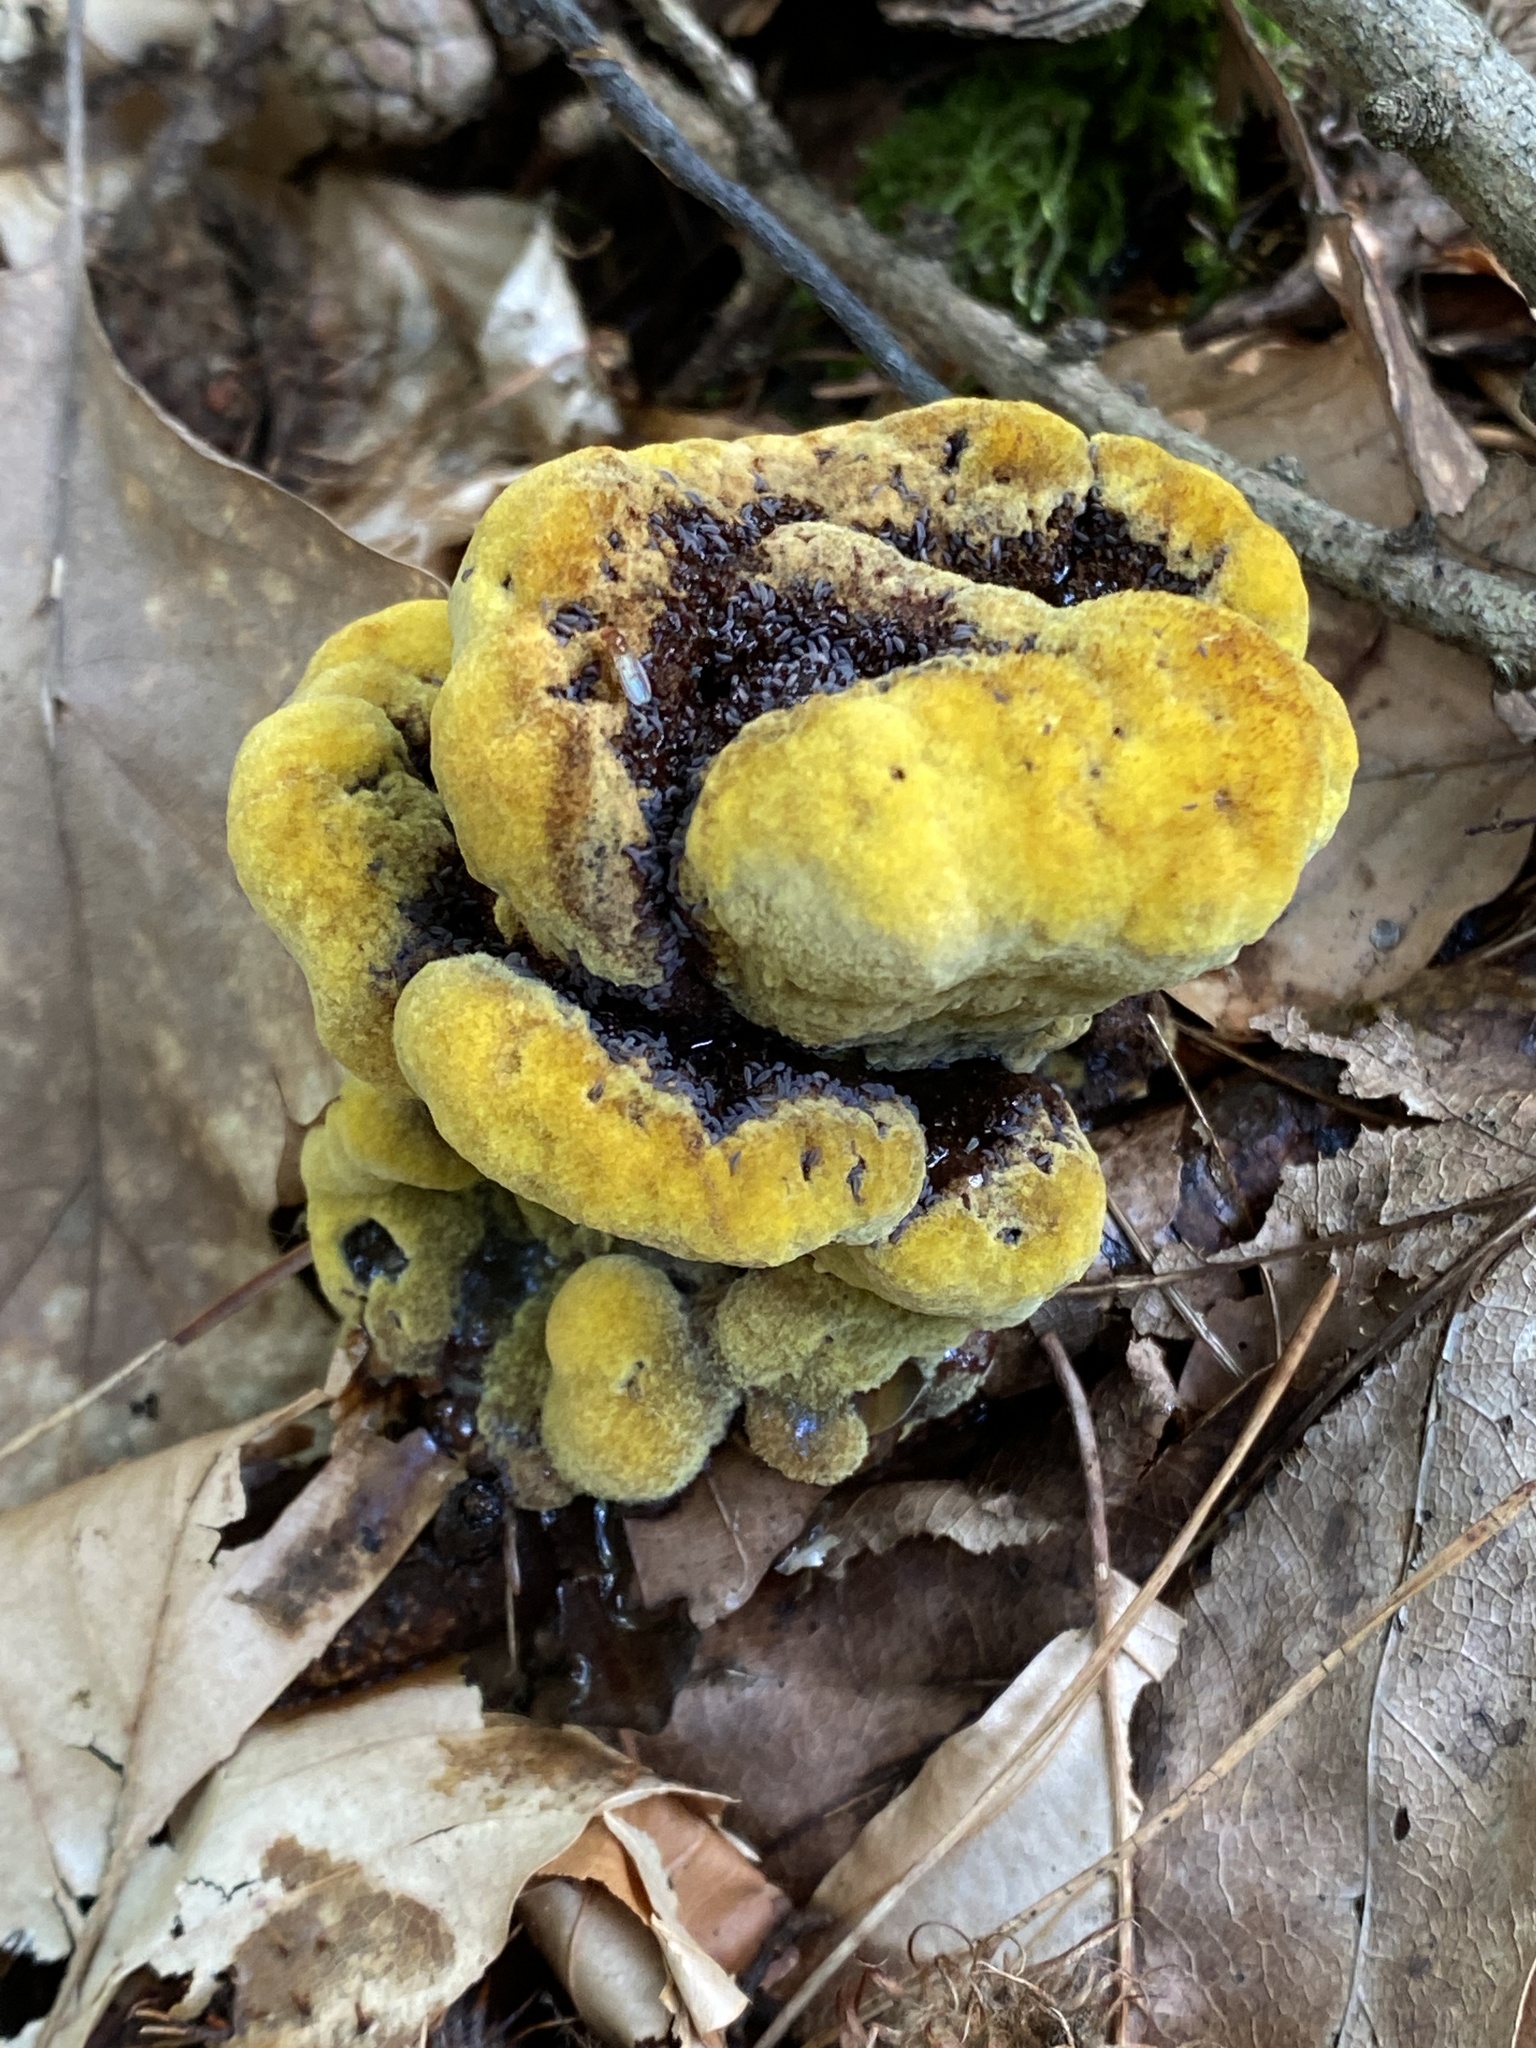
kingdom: Fungi
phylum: Basidiomycota
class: Agaricomycetes
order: Polyporales
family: Laetiporaceae
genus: Phaeolus
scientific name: Phaeolus schweinitzii
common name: Dyer's mazegill
